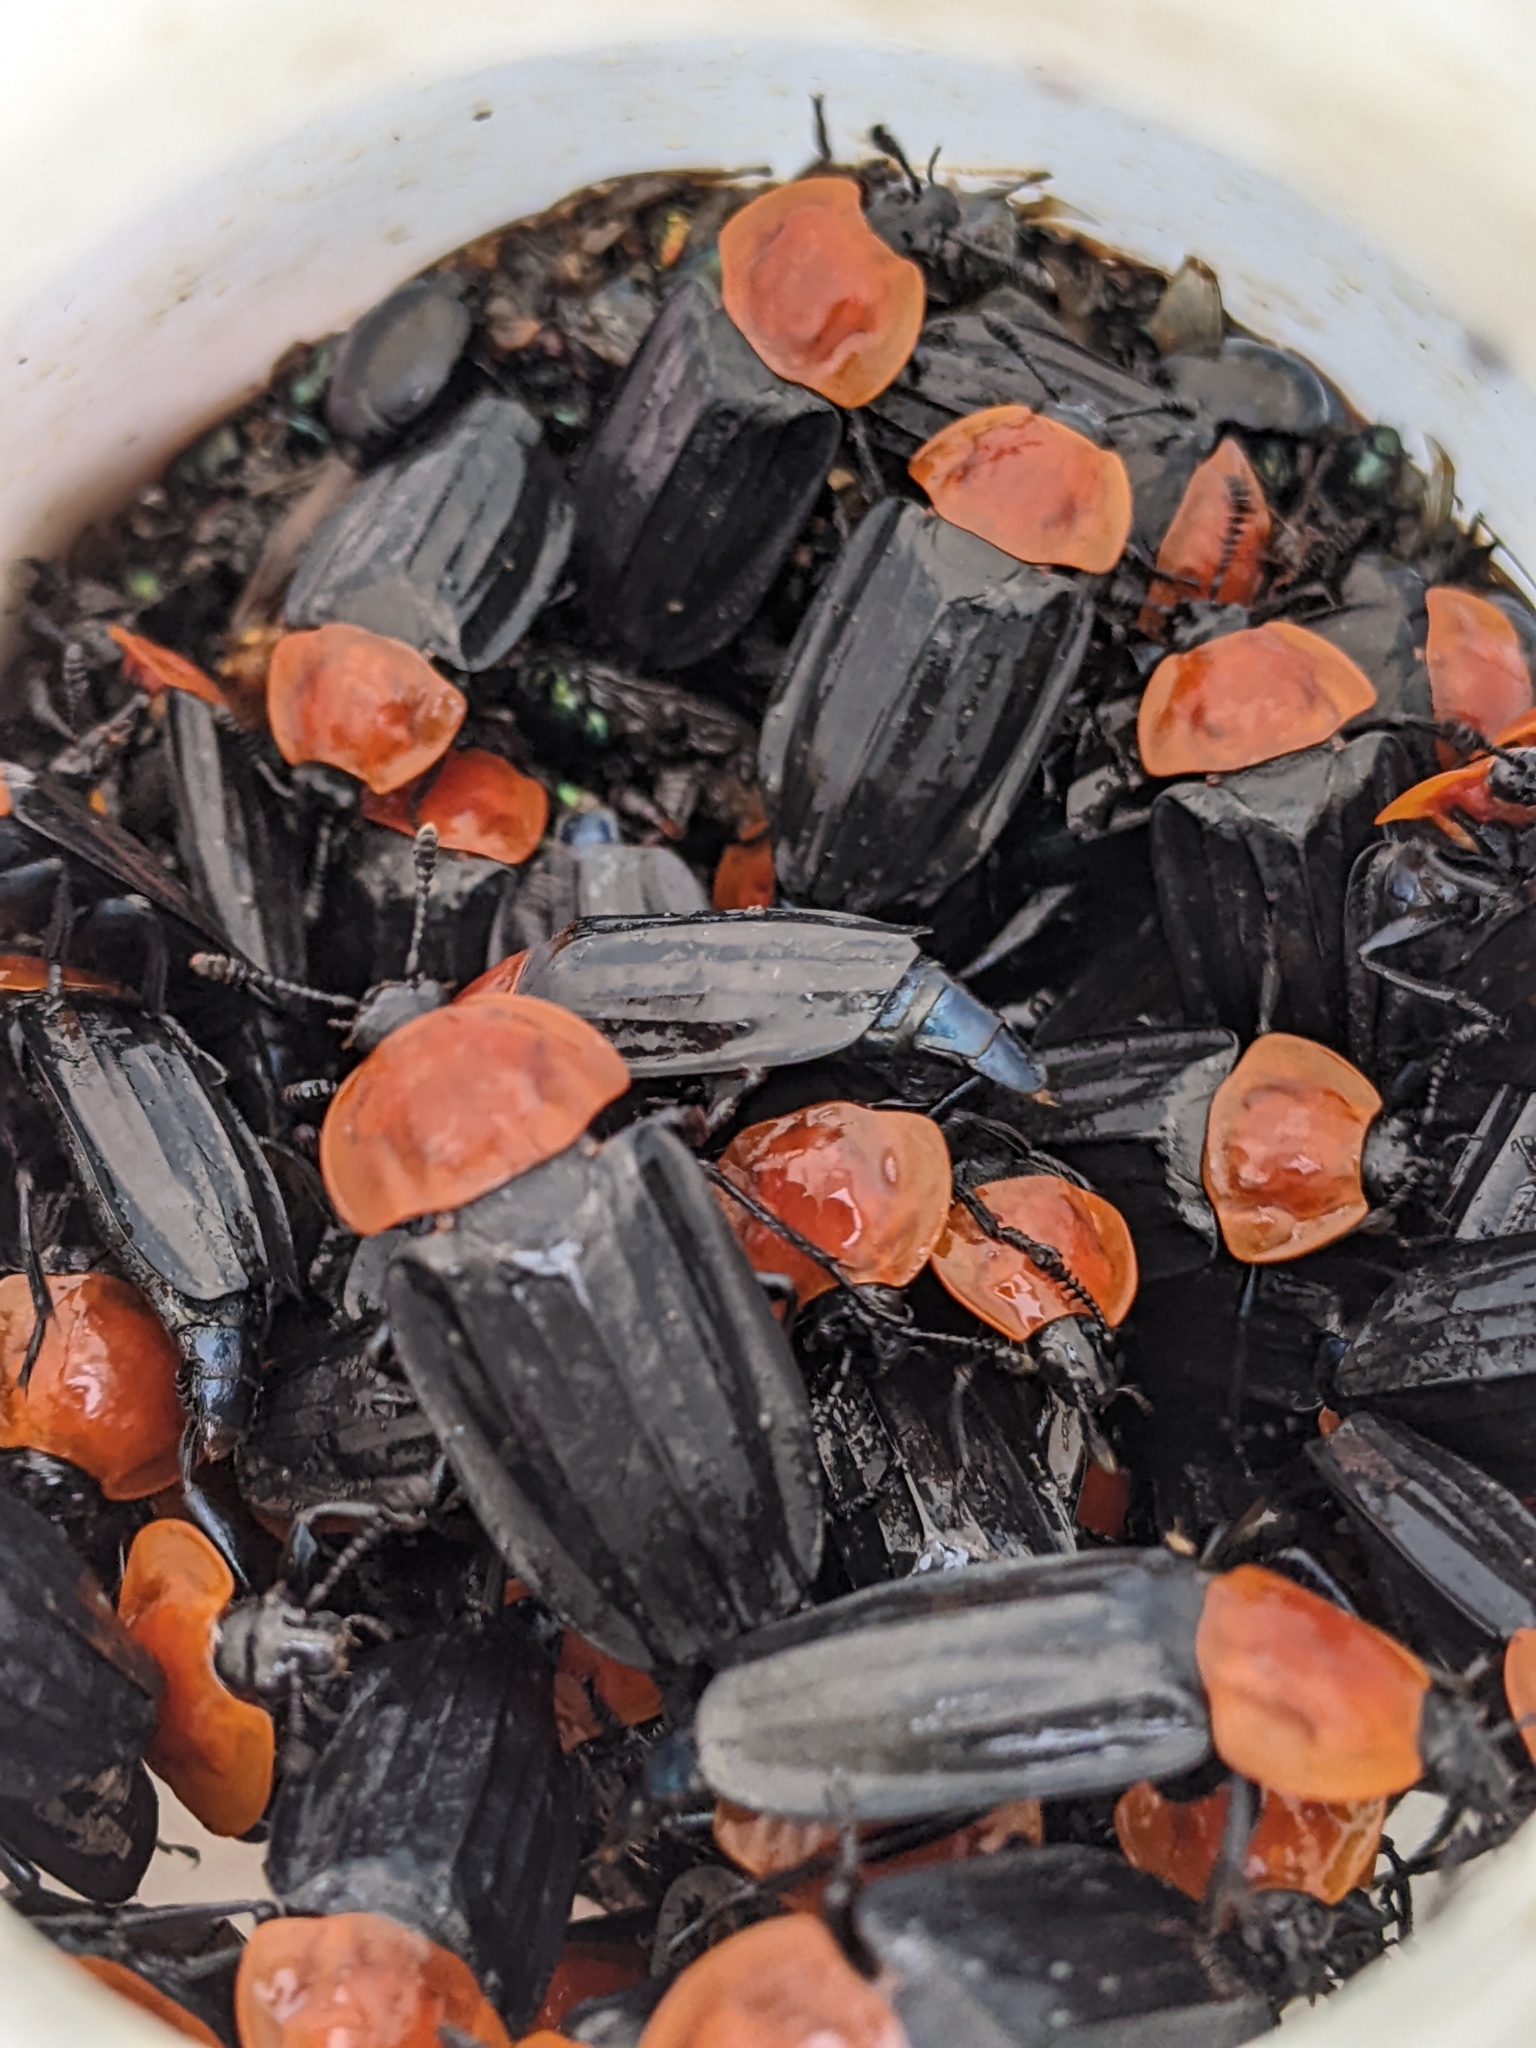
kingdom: Animalia
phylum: Arthropoda
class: Insecta
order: Coleoptera
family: Staphylinidae
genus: Necrophila
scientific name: Necrophila cyaneocephala
